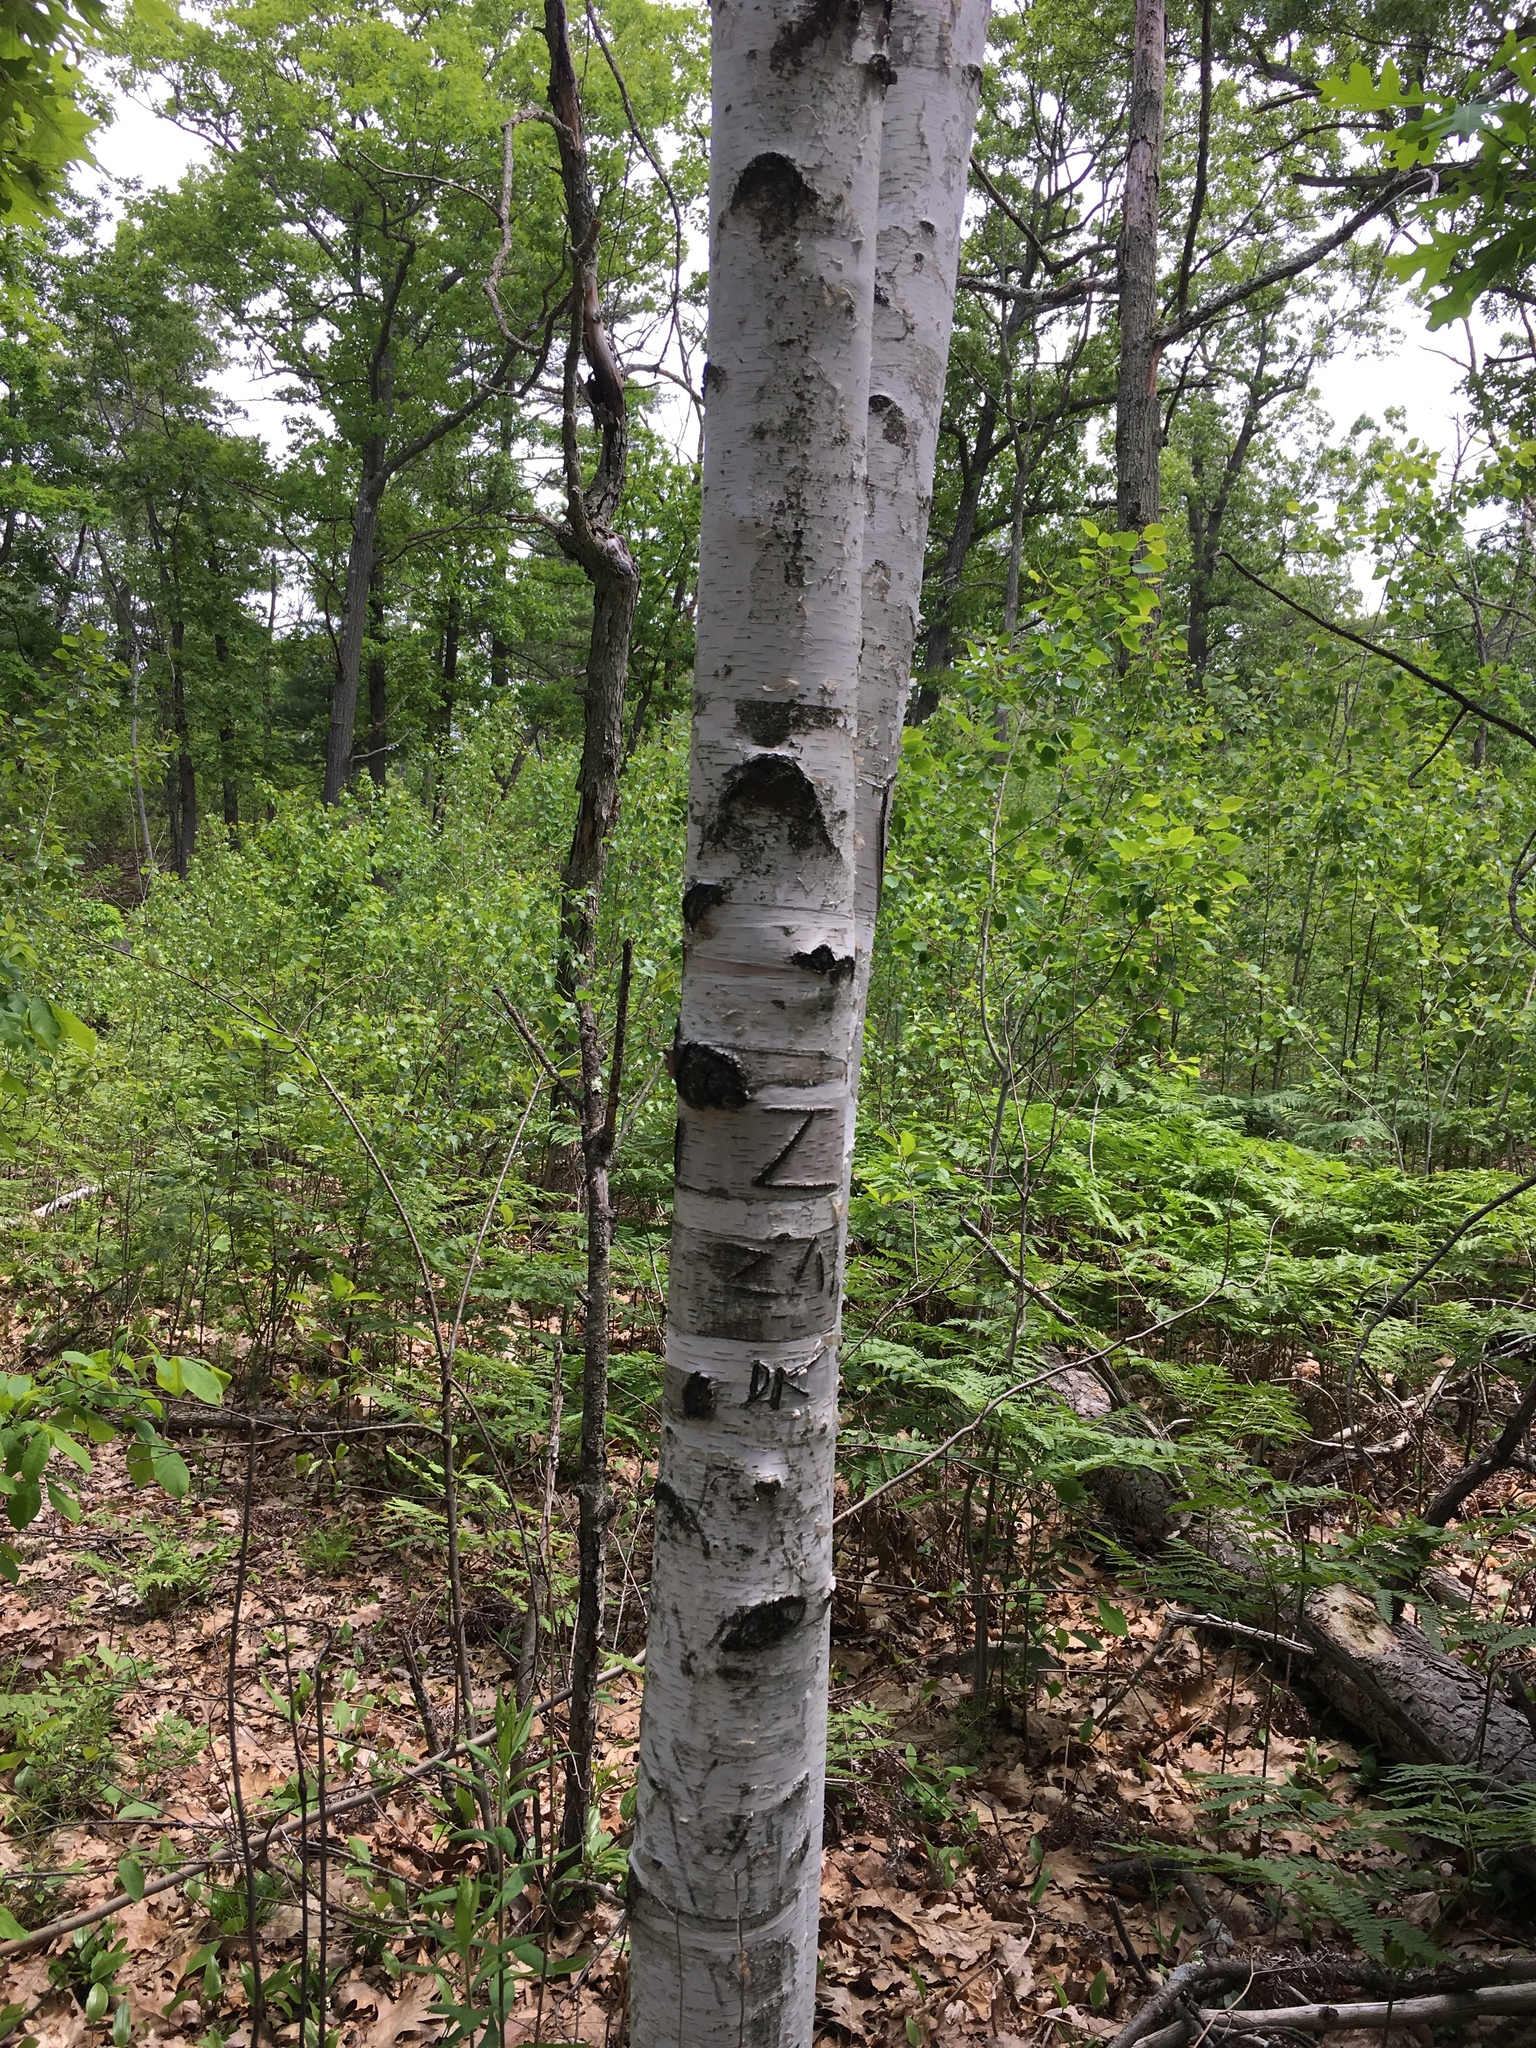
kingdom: Plantae
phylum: Tracheophyta
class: Magnoliopsida
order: Fagales
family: Betulaceae
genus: Betula
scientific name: Betula papyrifera
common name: Paper birch
